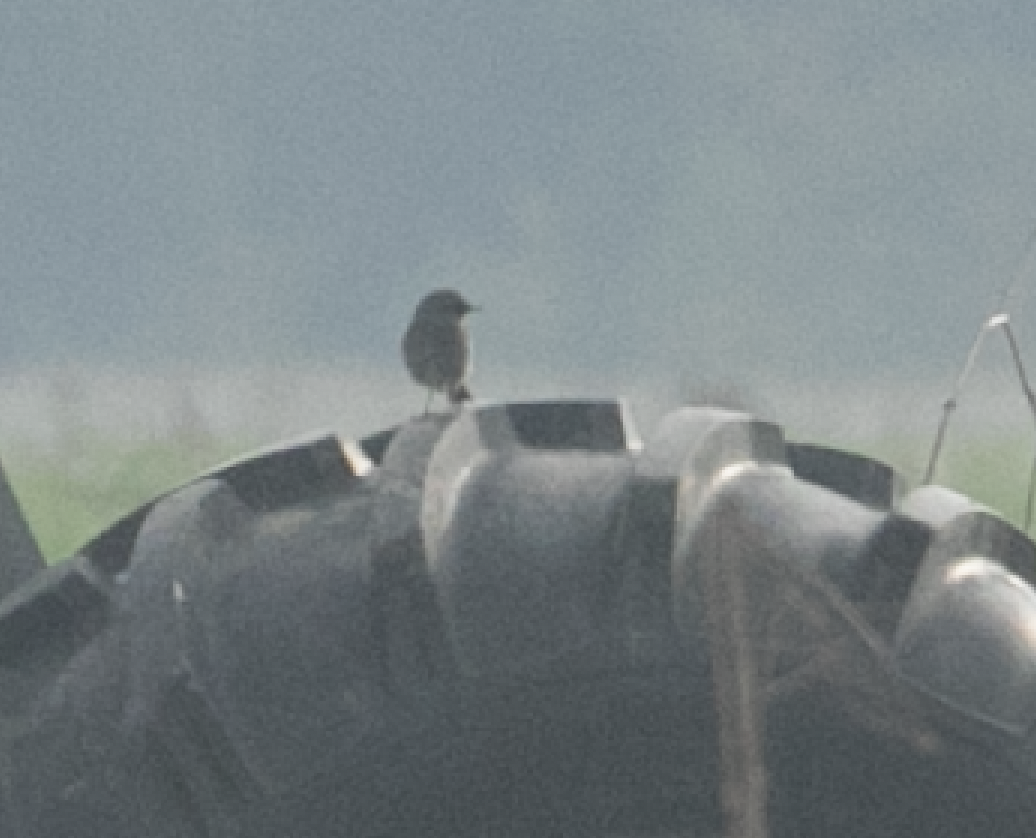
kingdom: Animalia
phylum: Chordata
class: Aves
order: Passeriformes
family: Muscicapidae
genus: Phoenicurus
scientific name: Phoenicurus ochruros
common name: Black redstart
